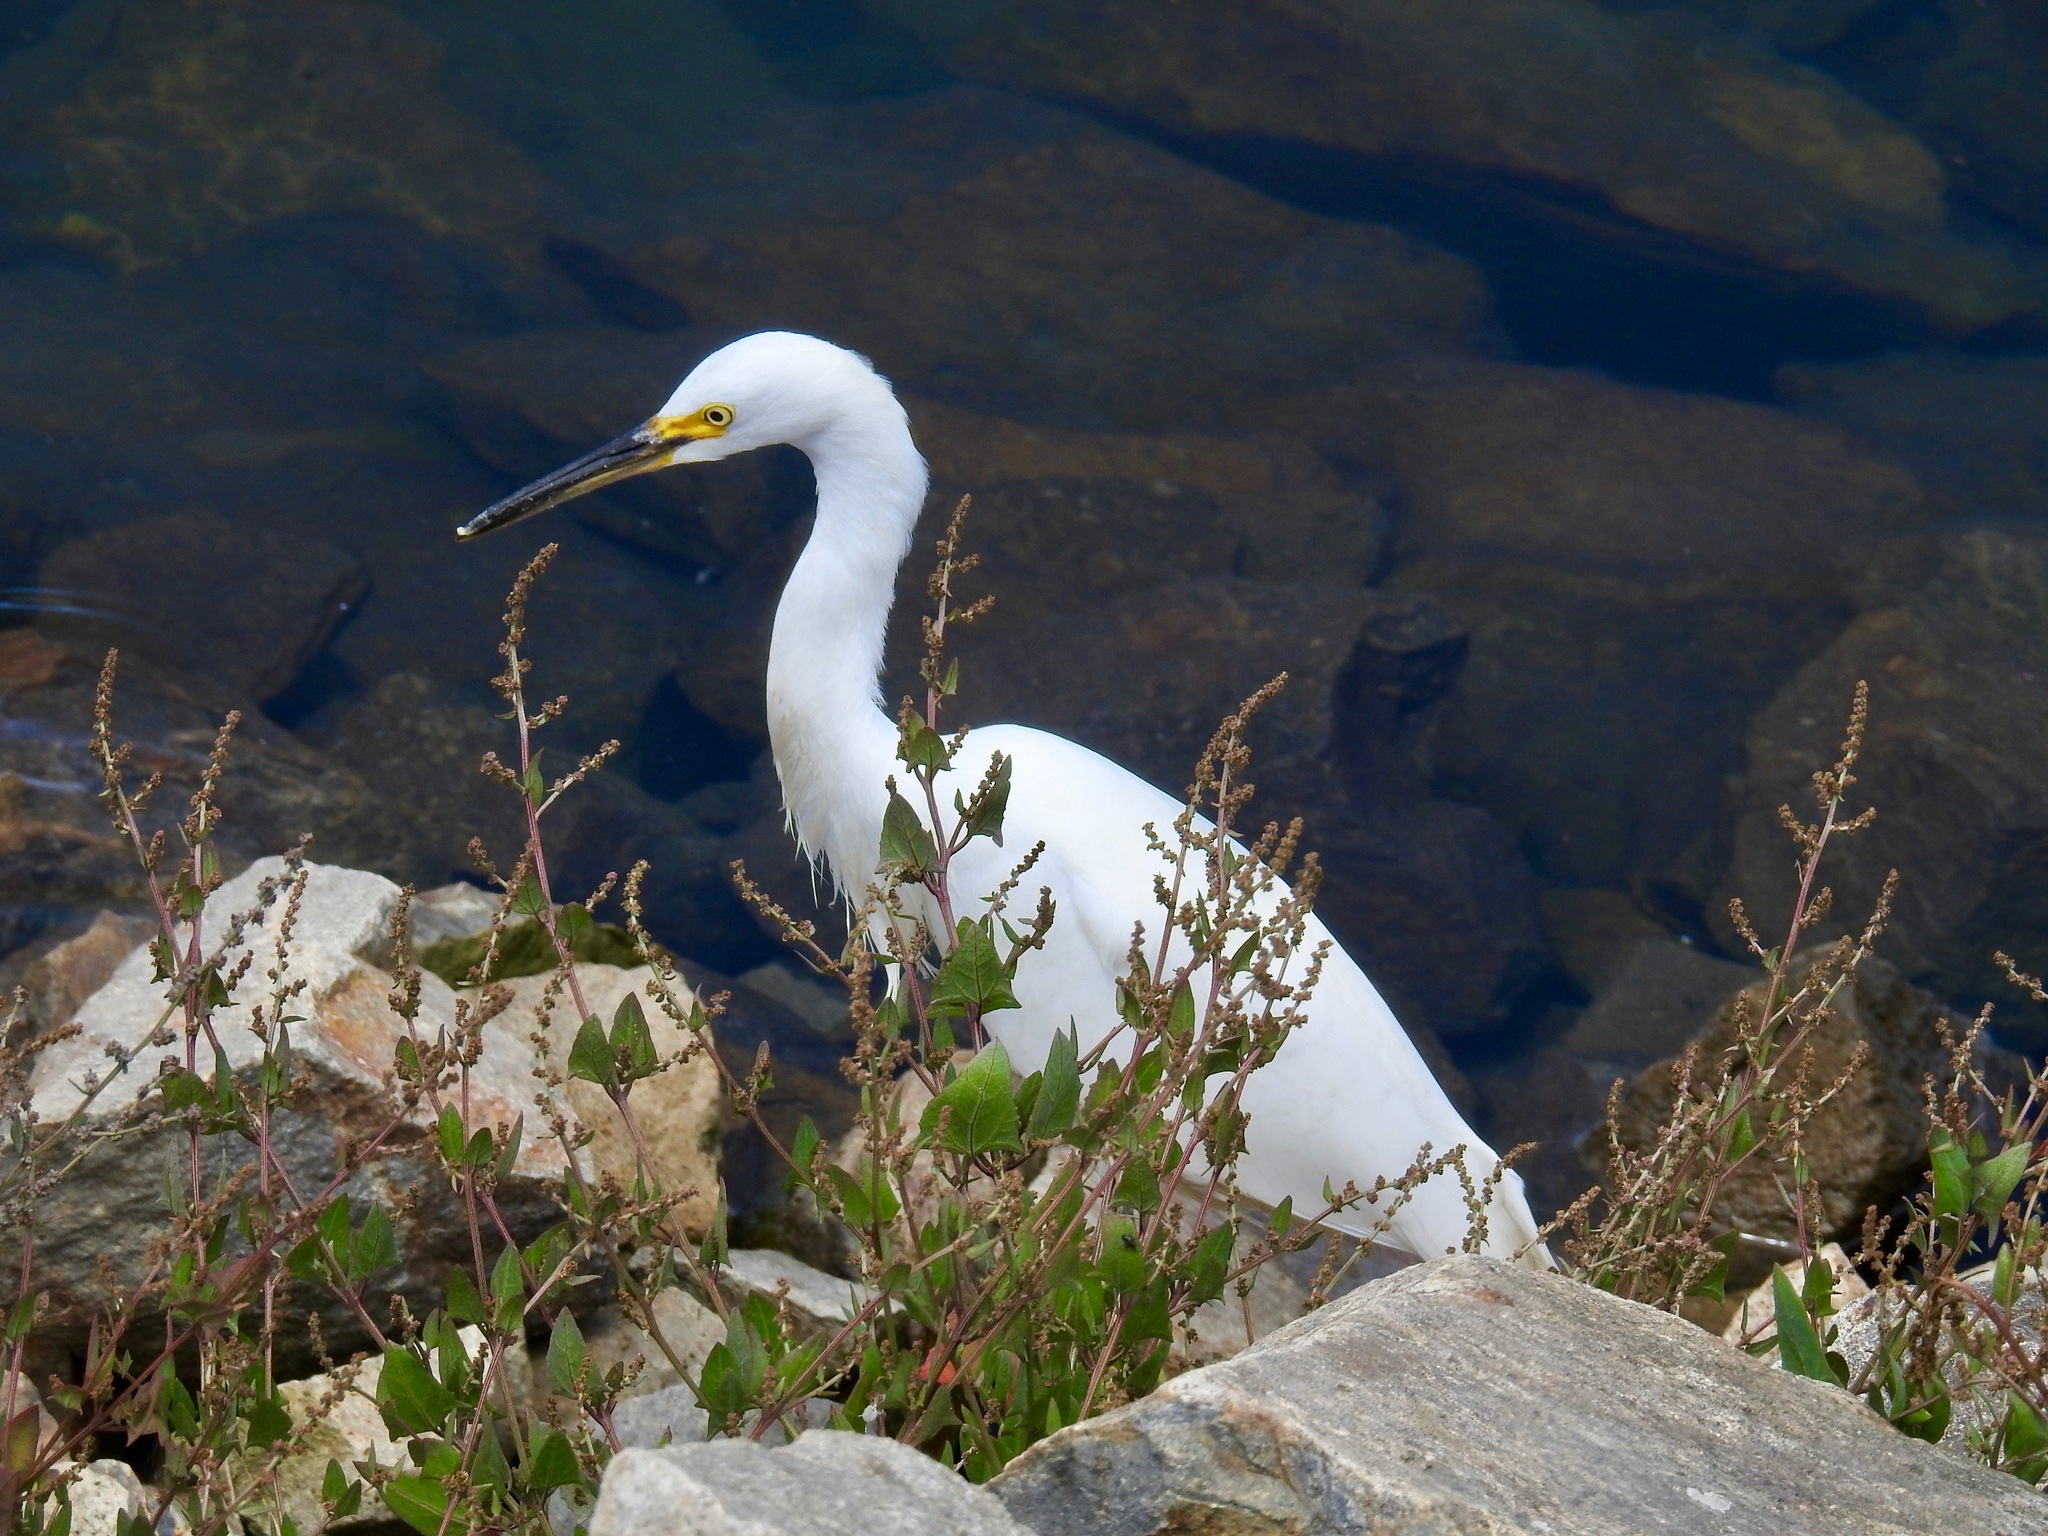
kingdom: Animalia
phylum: Chordata
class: Aves
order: Pelecaniformes
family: Ardeidae
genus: Egretta
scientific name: Egretta thula
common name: Snowy egret
